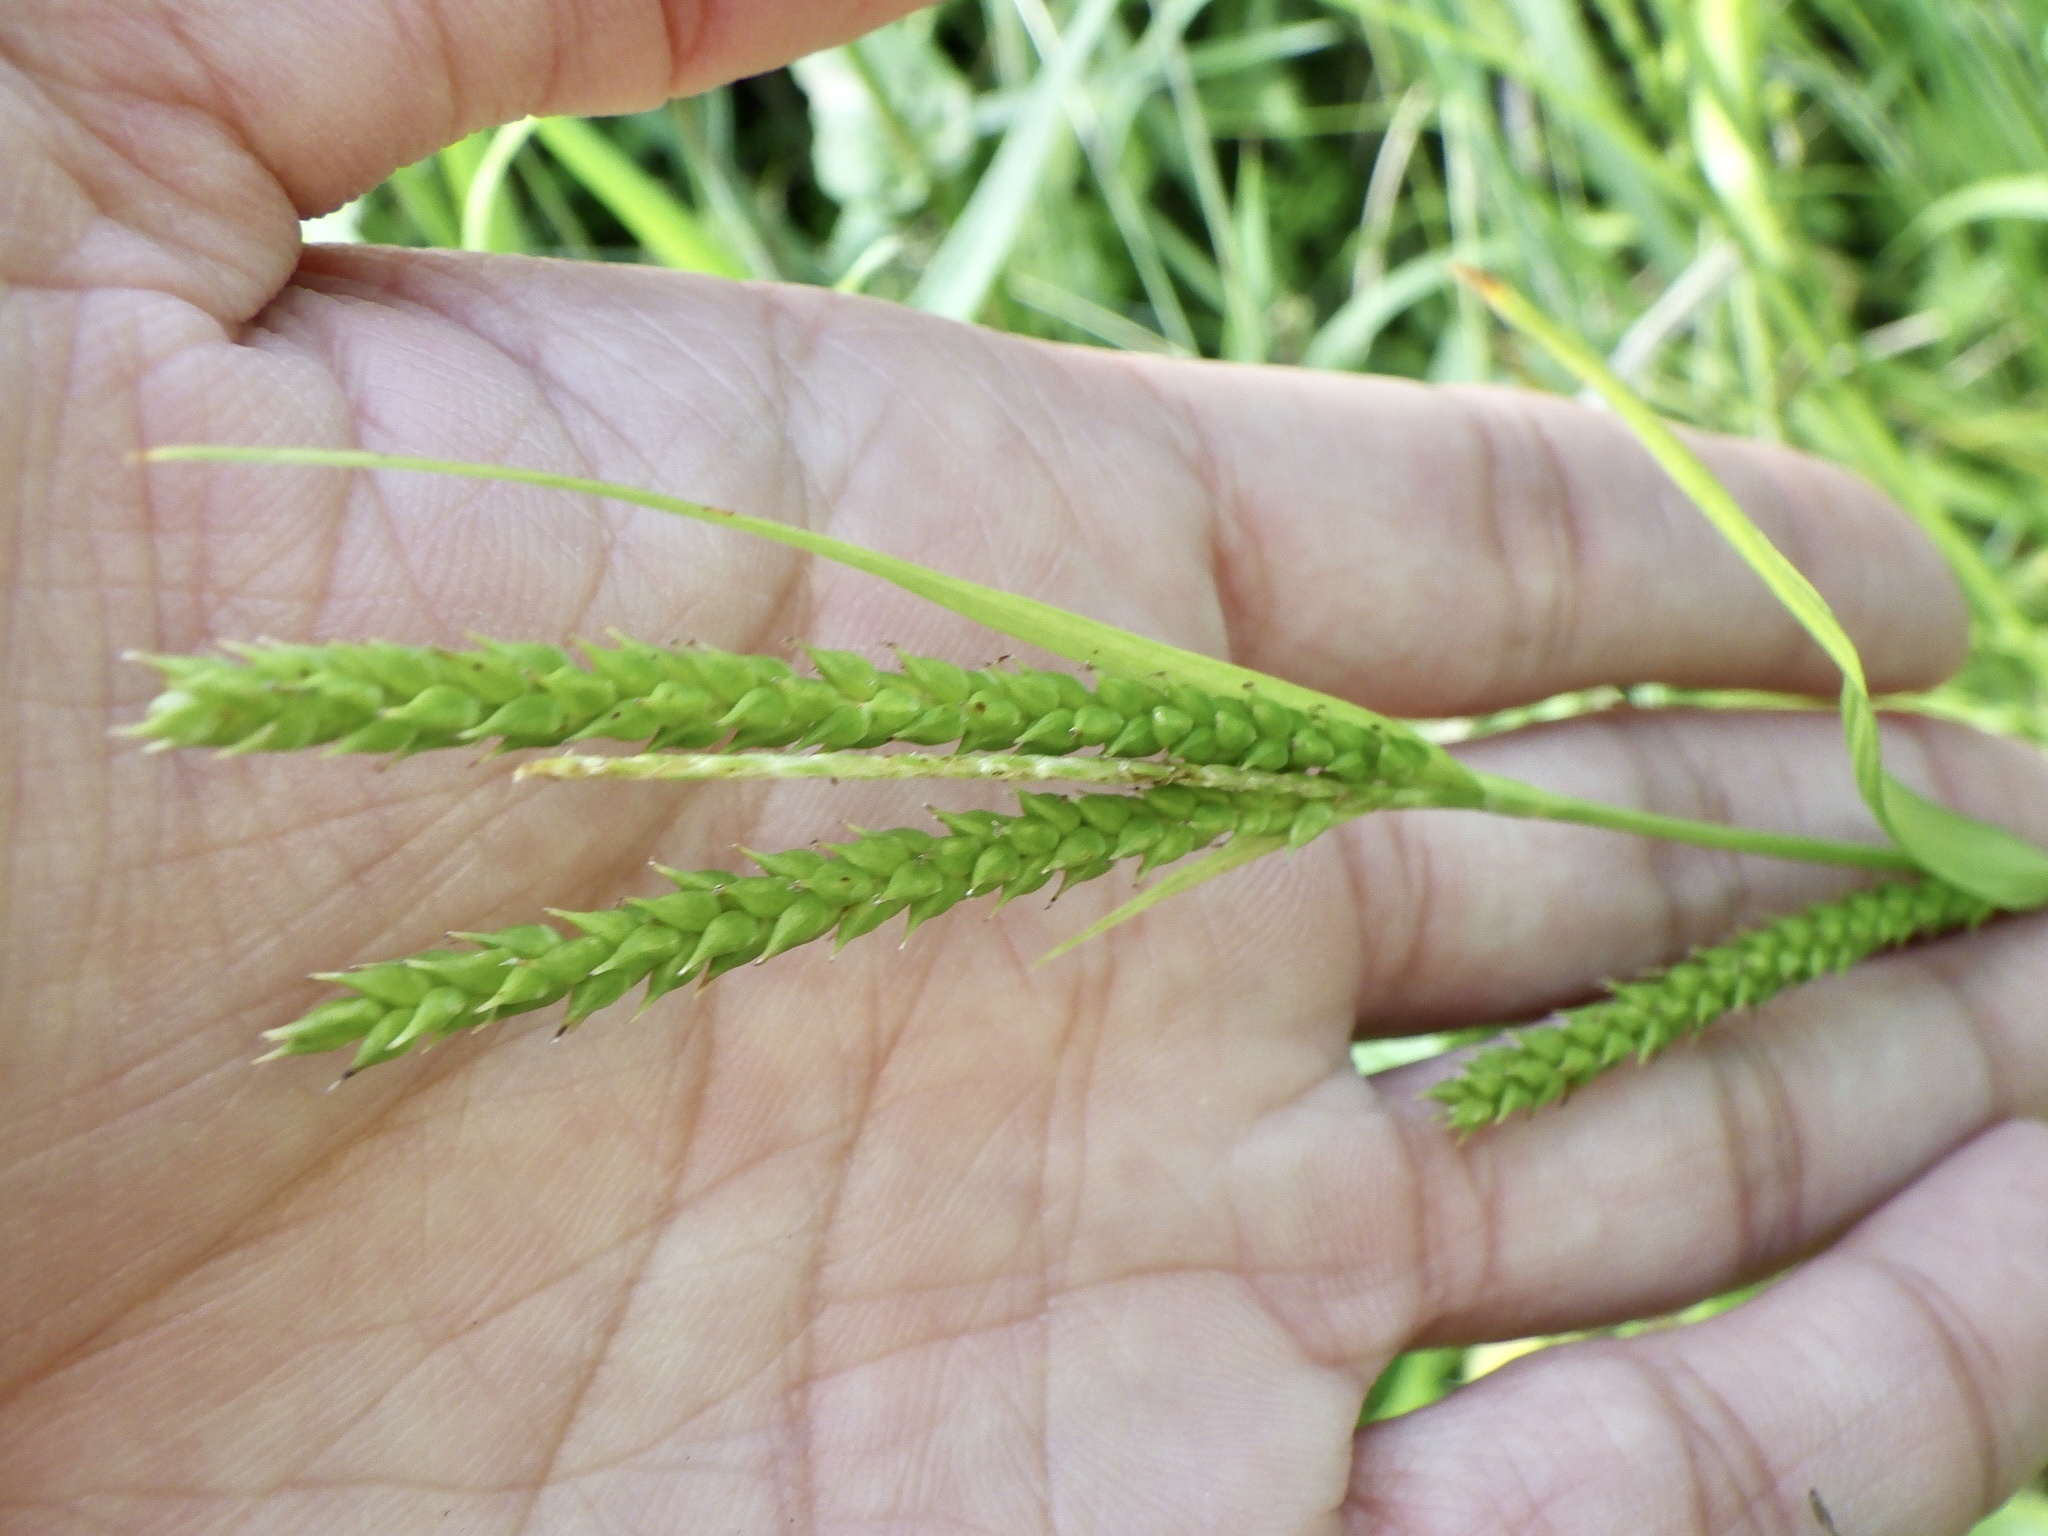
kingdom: Plantae
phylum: Tracheophyta
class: Liliopsida
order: Poales
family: Cyperaceae
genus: Carex
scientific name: Carex ischnostachya
